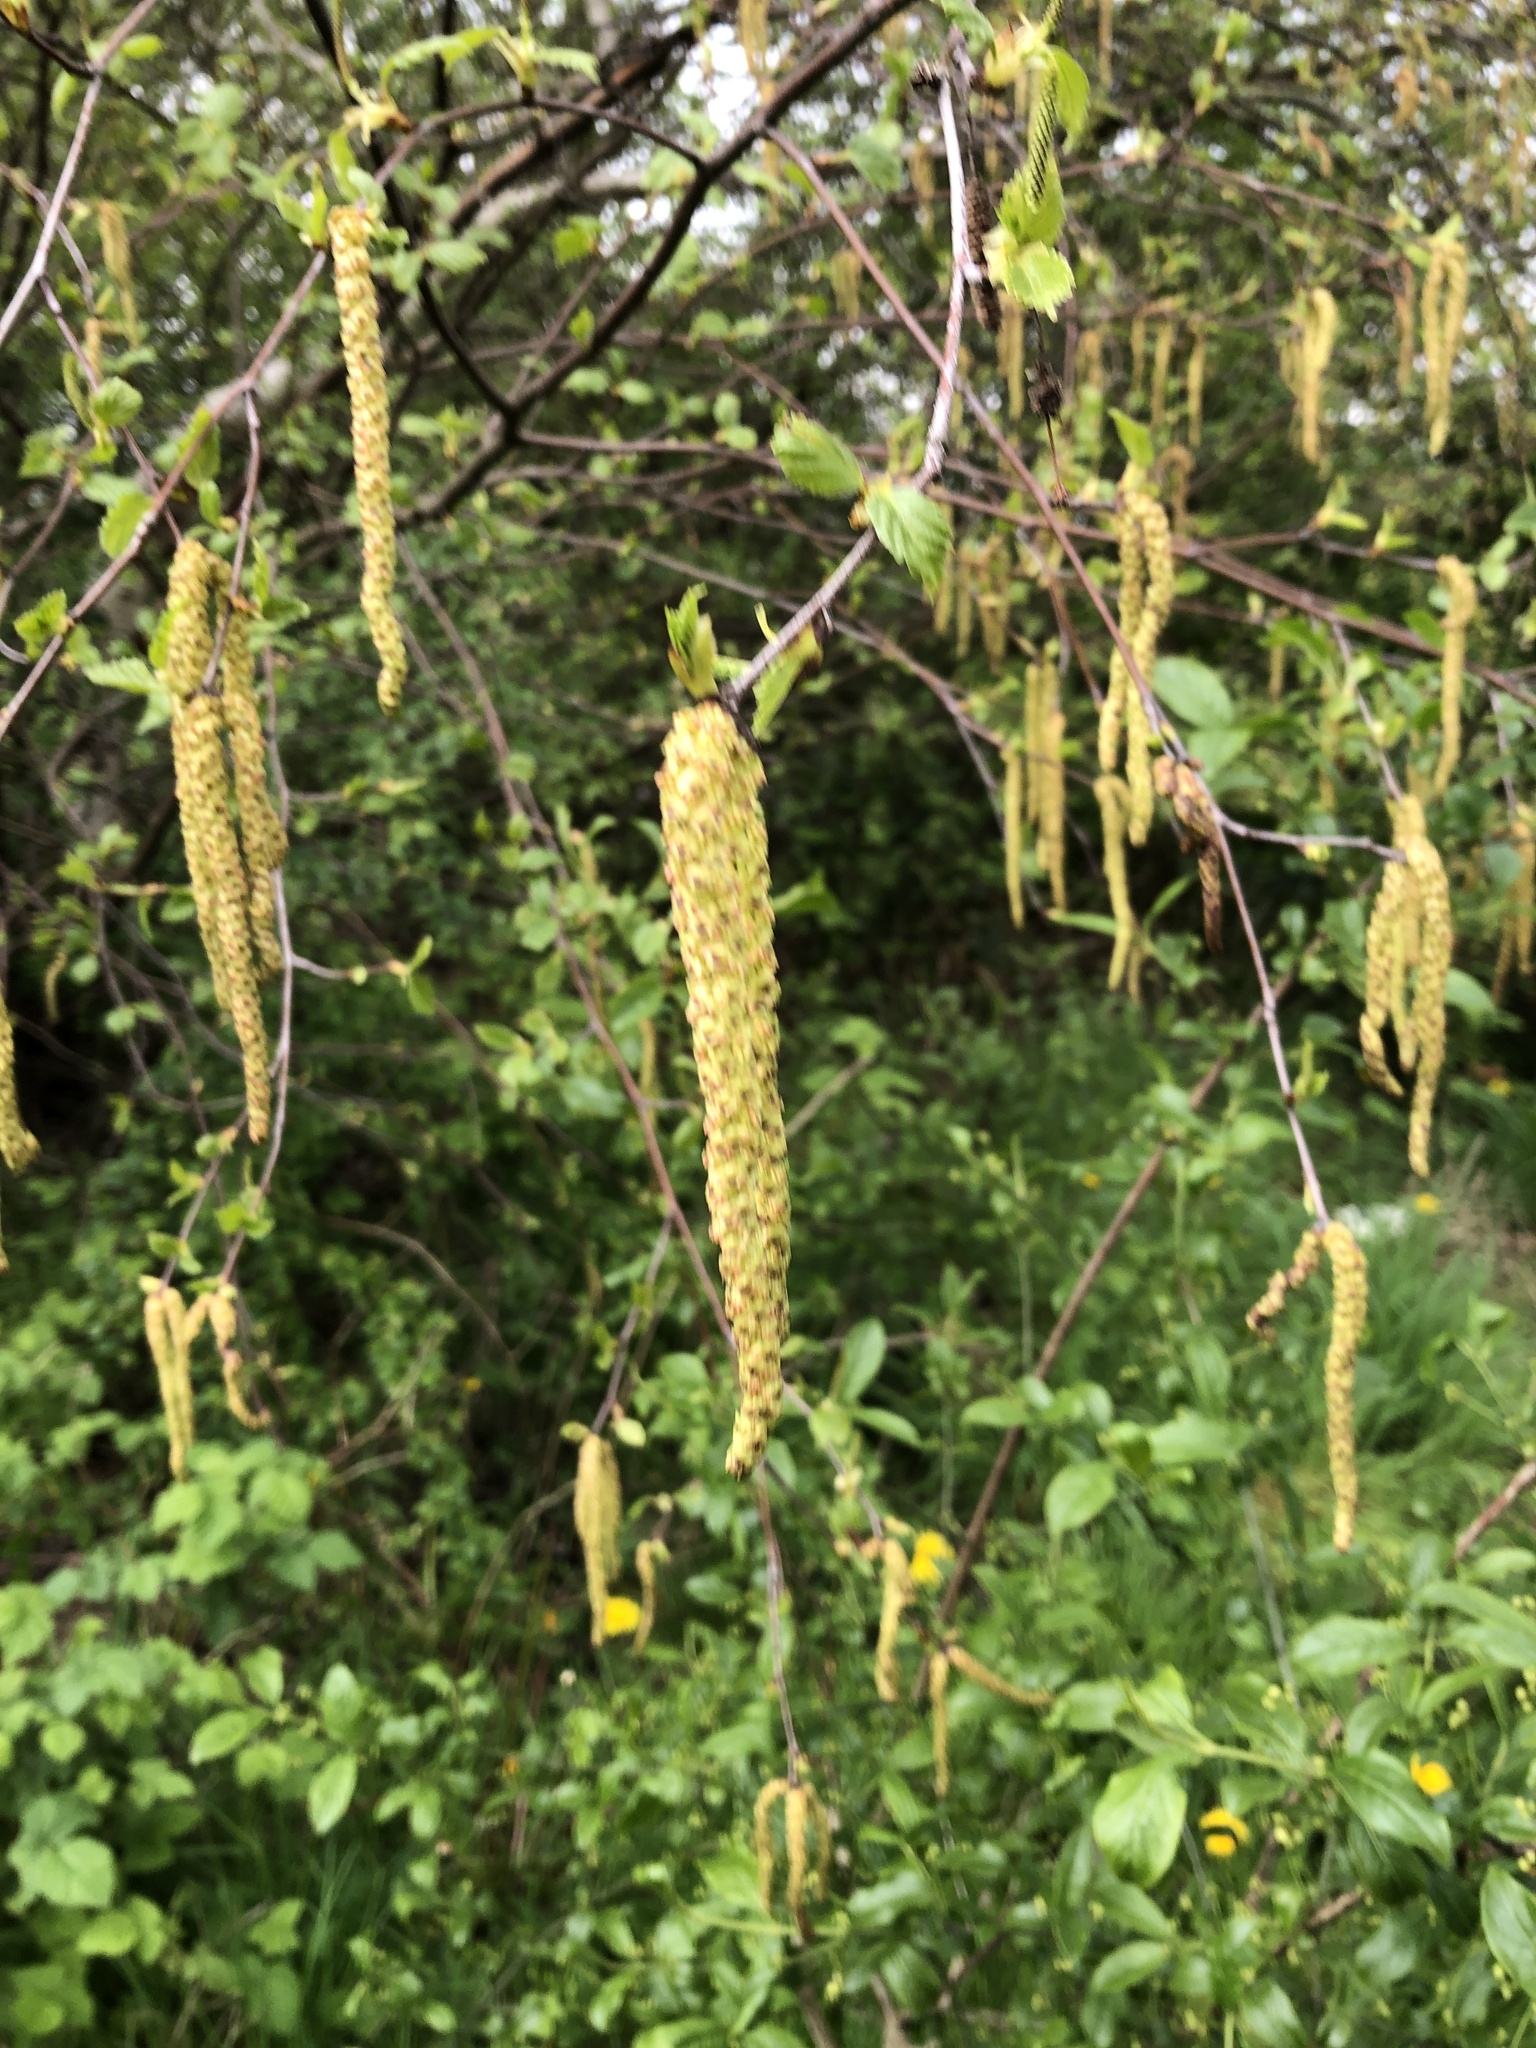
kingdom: Plantae
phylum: Tracheophyta
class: Magnoliopsida
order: Fagales
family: Betulaceae
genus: Betula
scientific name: Betula pendula
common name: Silver birch
